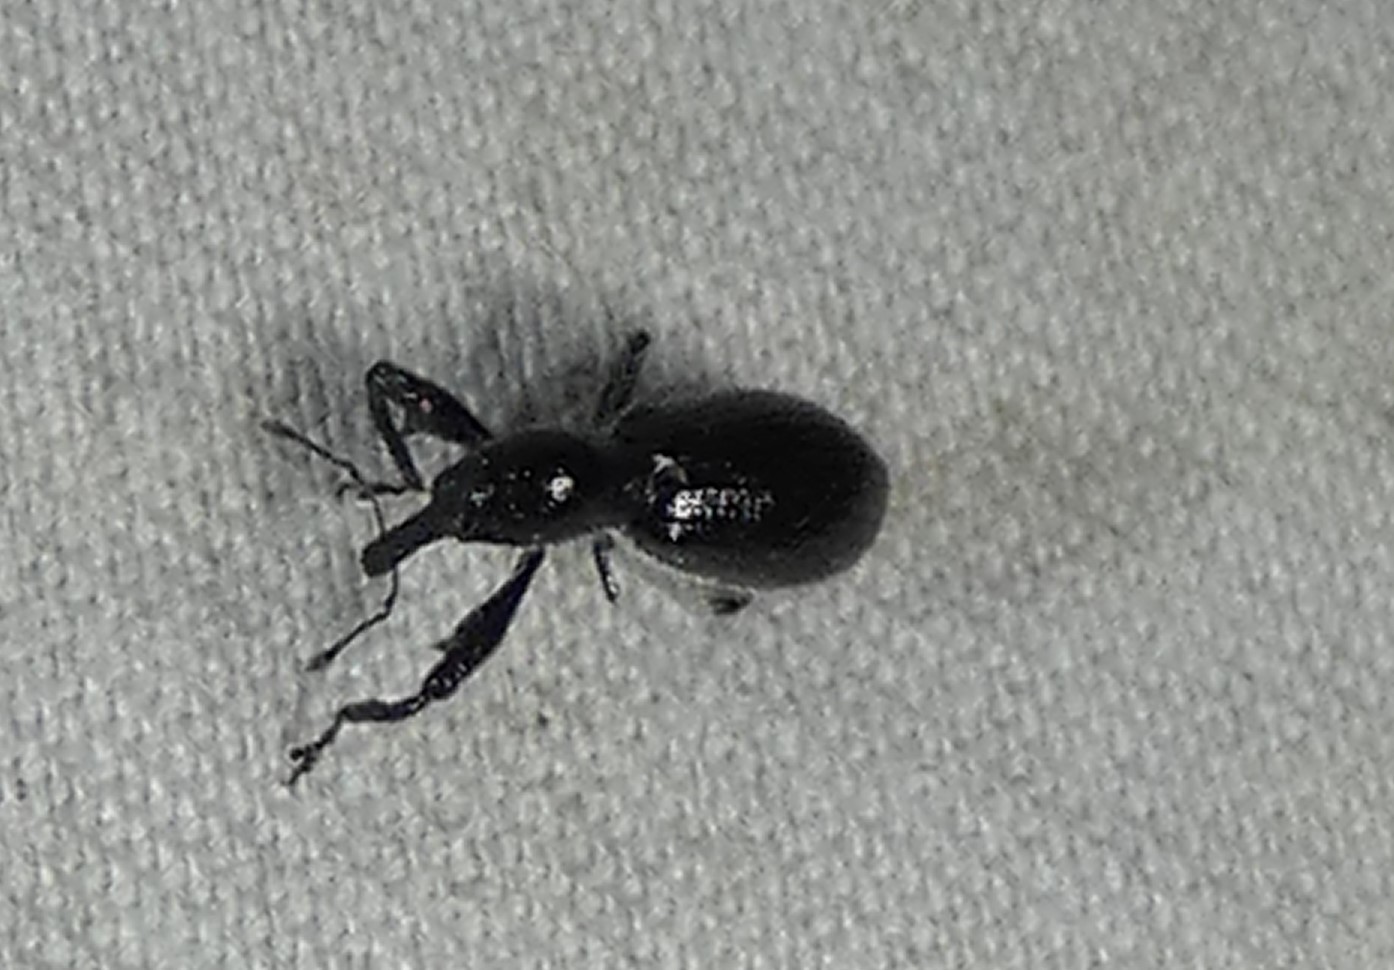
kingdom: Animalia
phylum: Arthropoda
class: Insecta
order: Coleoptera
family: Curculionidae
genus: Myrmex
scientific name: Myrmex myrmex
